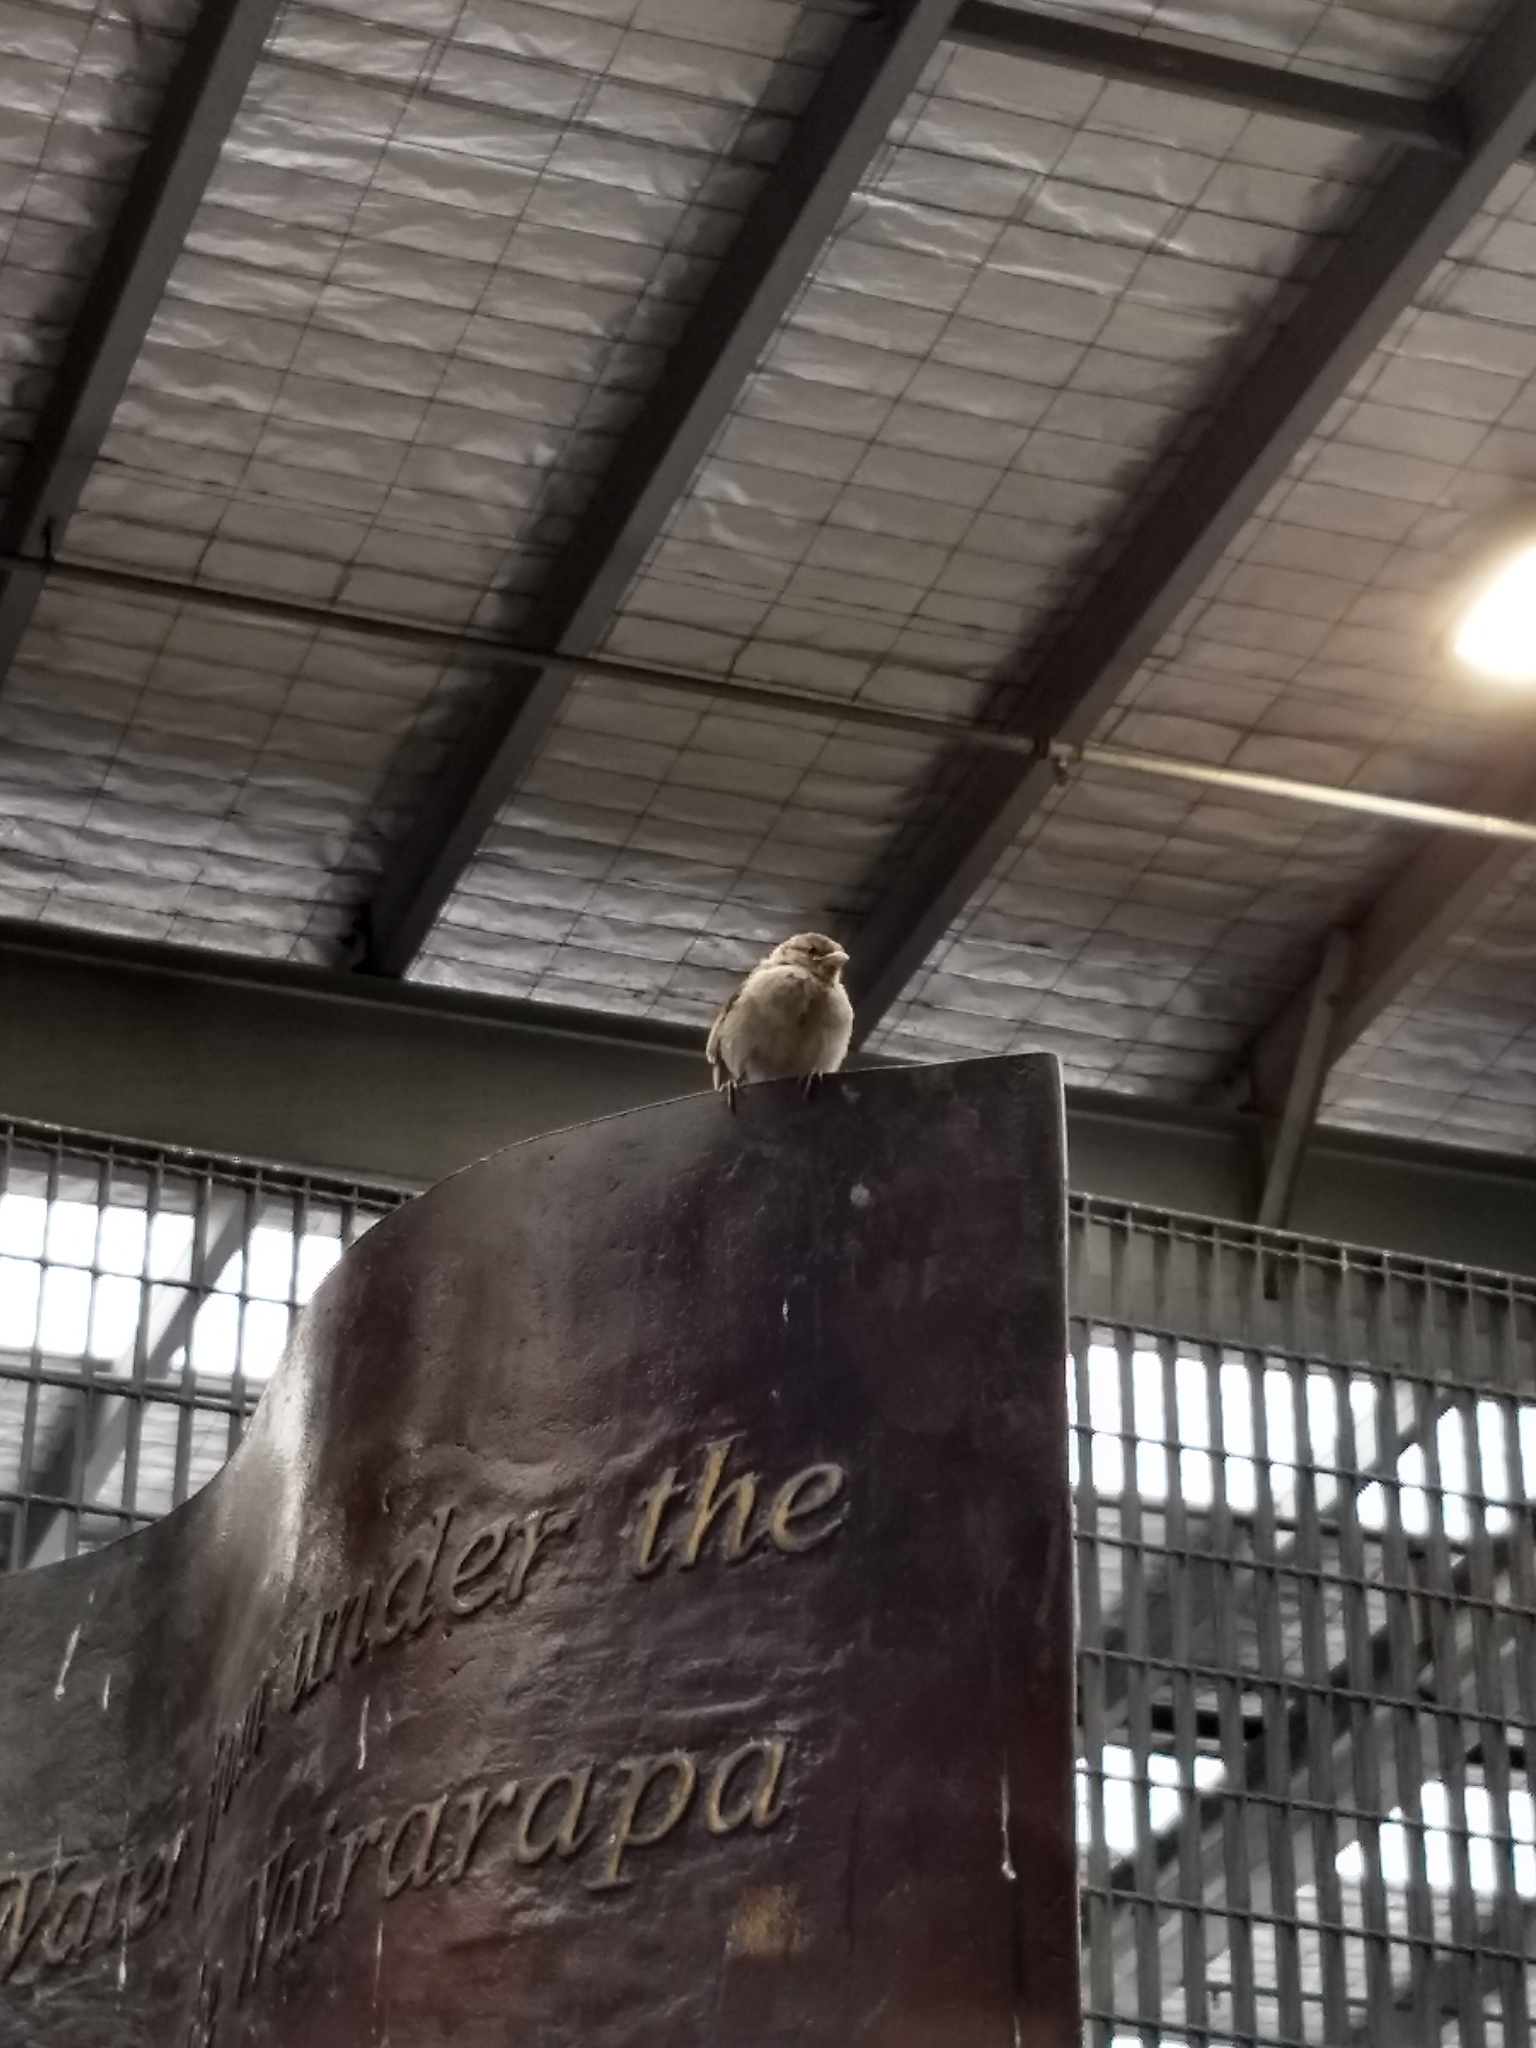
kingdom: Animalia
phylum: Chordata
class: Aves
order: Passeriformes
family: Passeridae
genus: Passer
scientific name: Passer domesticus
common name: House sparrow
